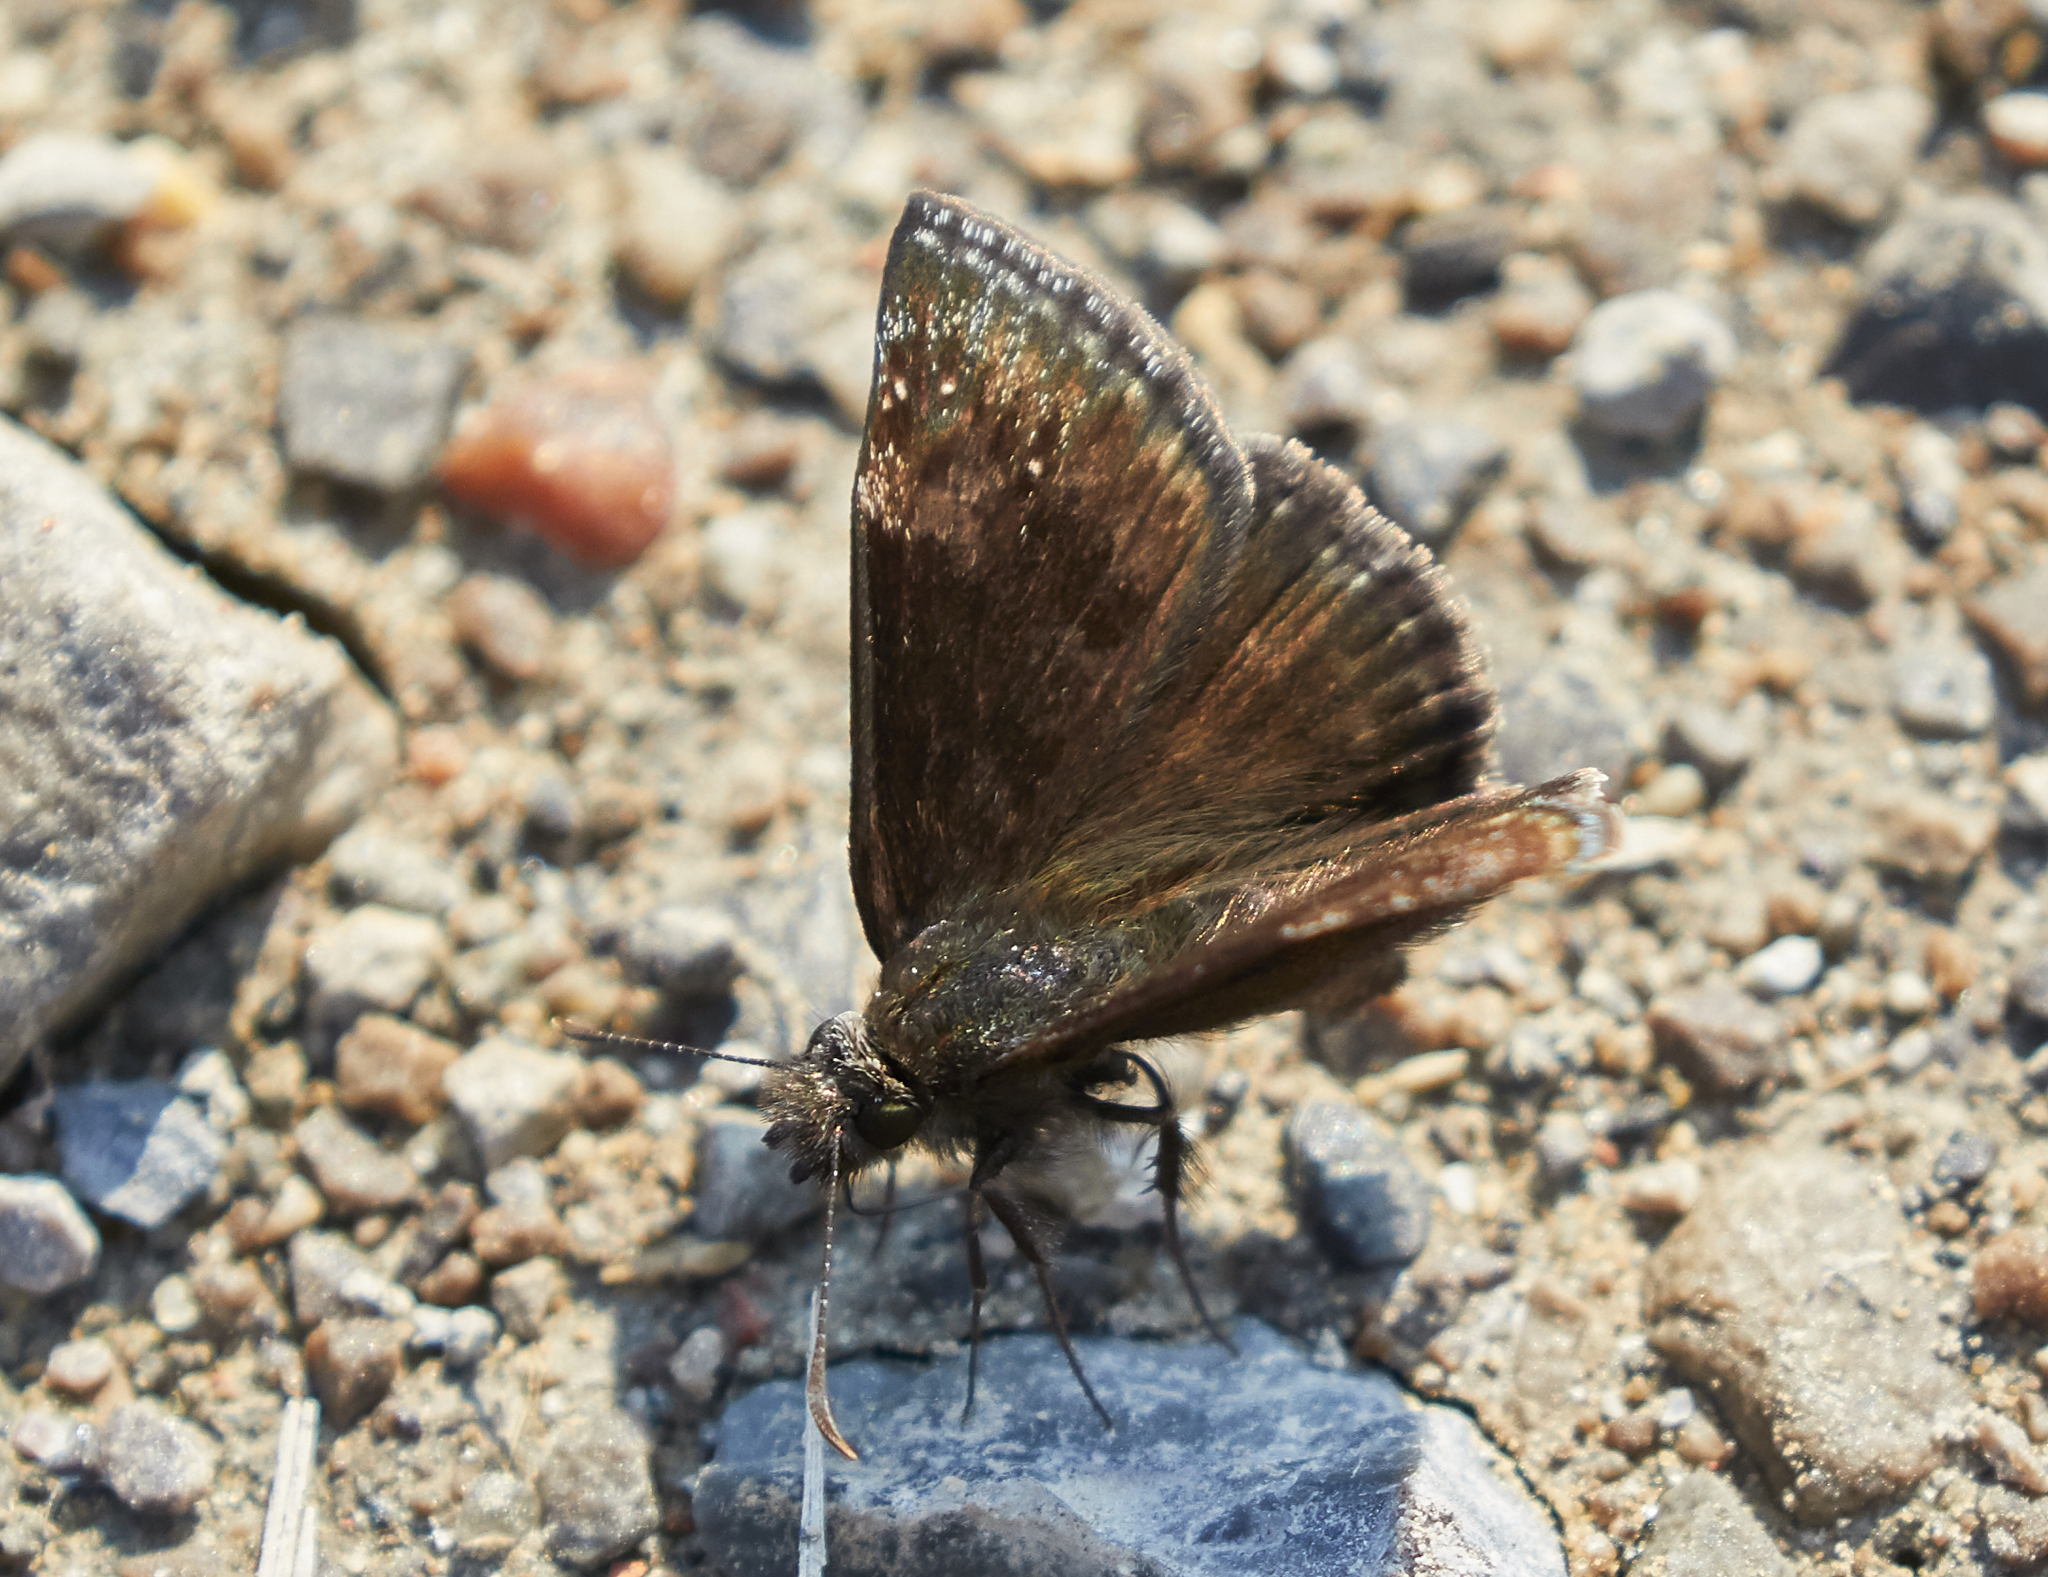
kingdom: Animalia
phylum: Arthropoda
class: Insecta
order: Lepidoptera
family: Hesperiidae
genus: Erynnis
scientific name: Erynnis baptisiae
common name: Wild indigo duskywing
